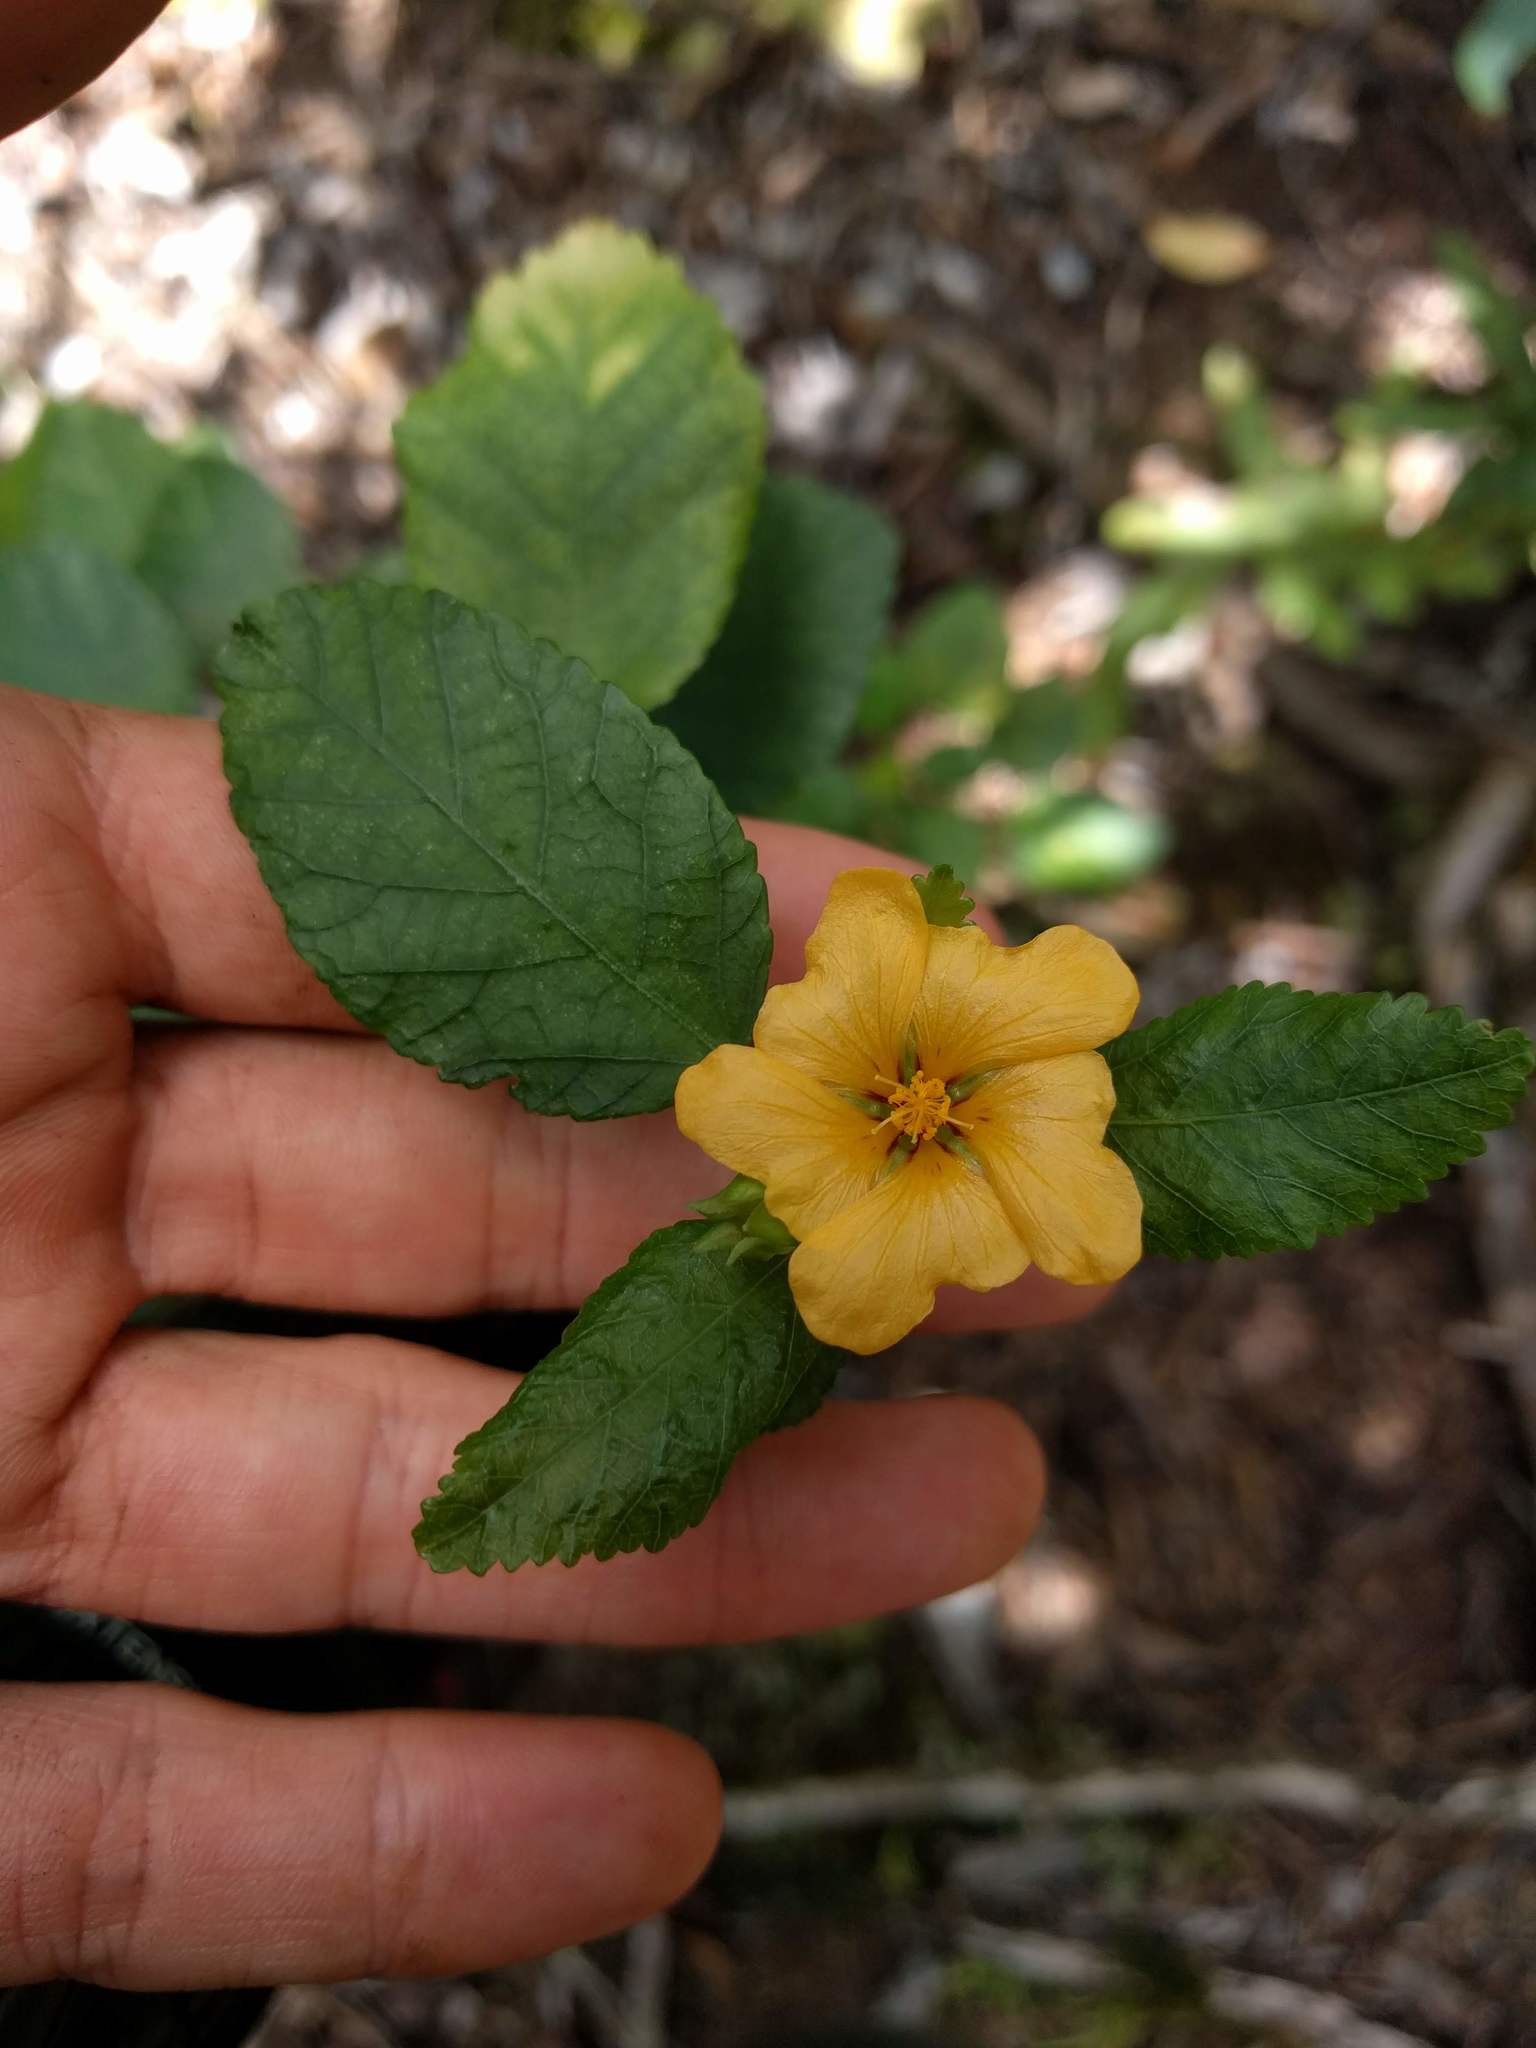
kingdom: Plantae
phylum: Tracheophyta
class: Magnoliopsida
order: Malvales
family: Malvaceae
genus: Sida
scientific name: Sida fallax
